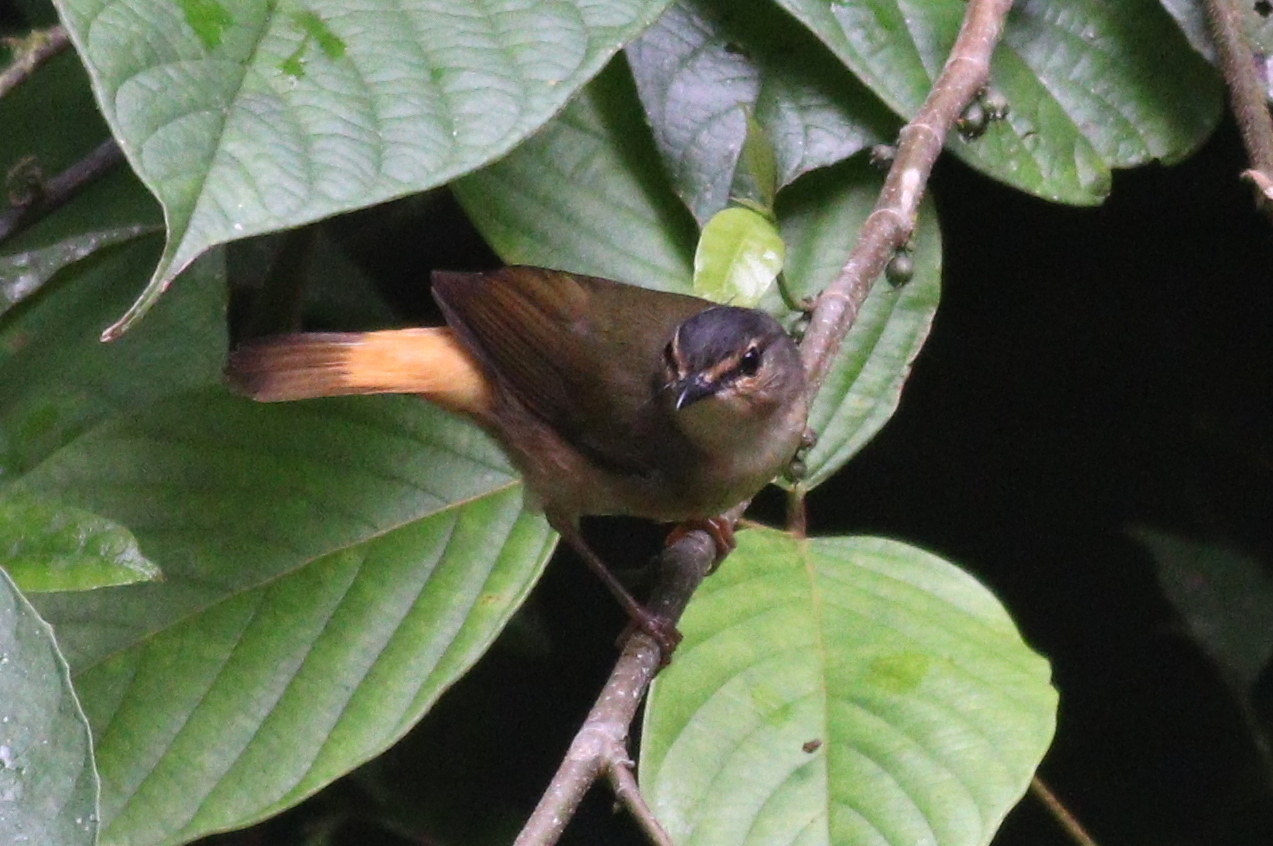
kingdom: Animalia
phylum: Chordata
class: Aves
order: Passeriformes
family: Parulidae
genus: Myiothlypis
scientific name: Myiothlypis fulvicauda
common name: Buff-rumped warbler
